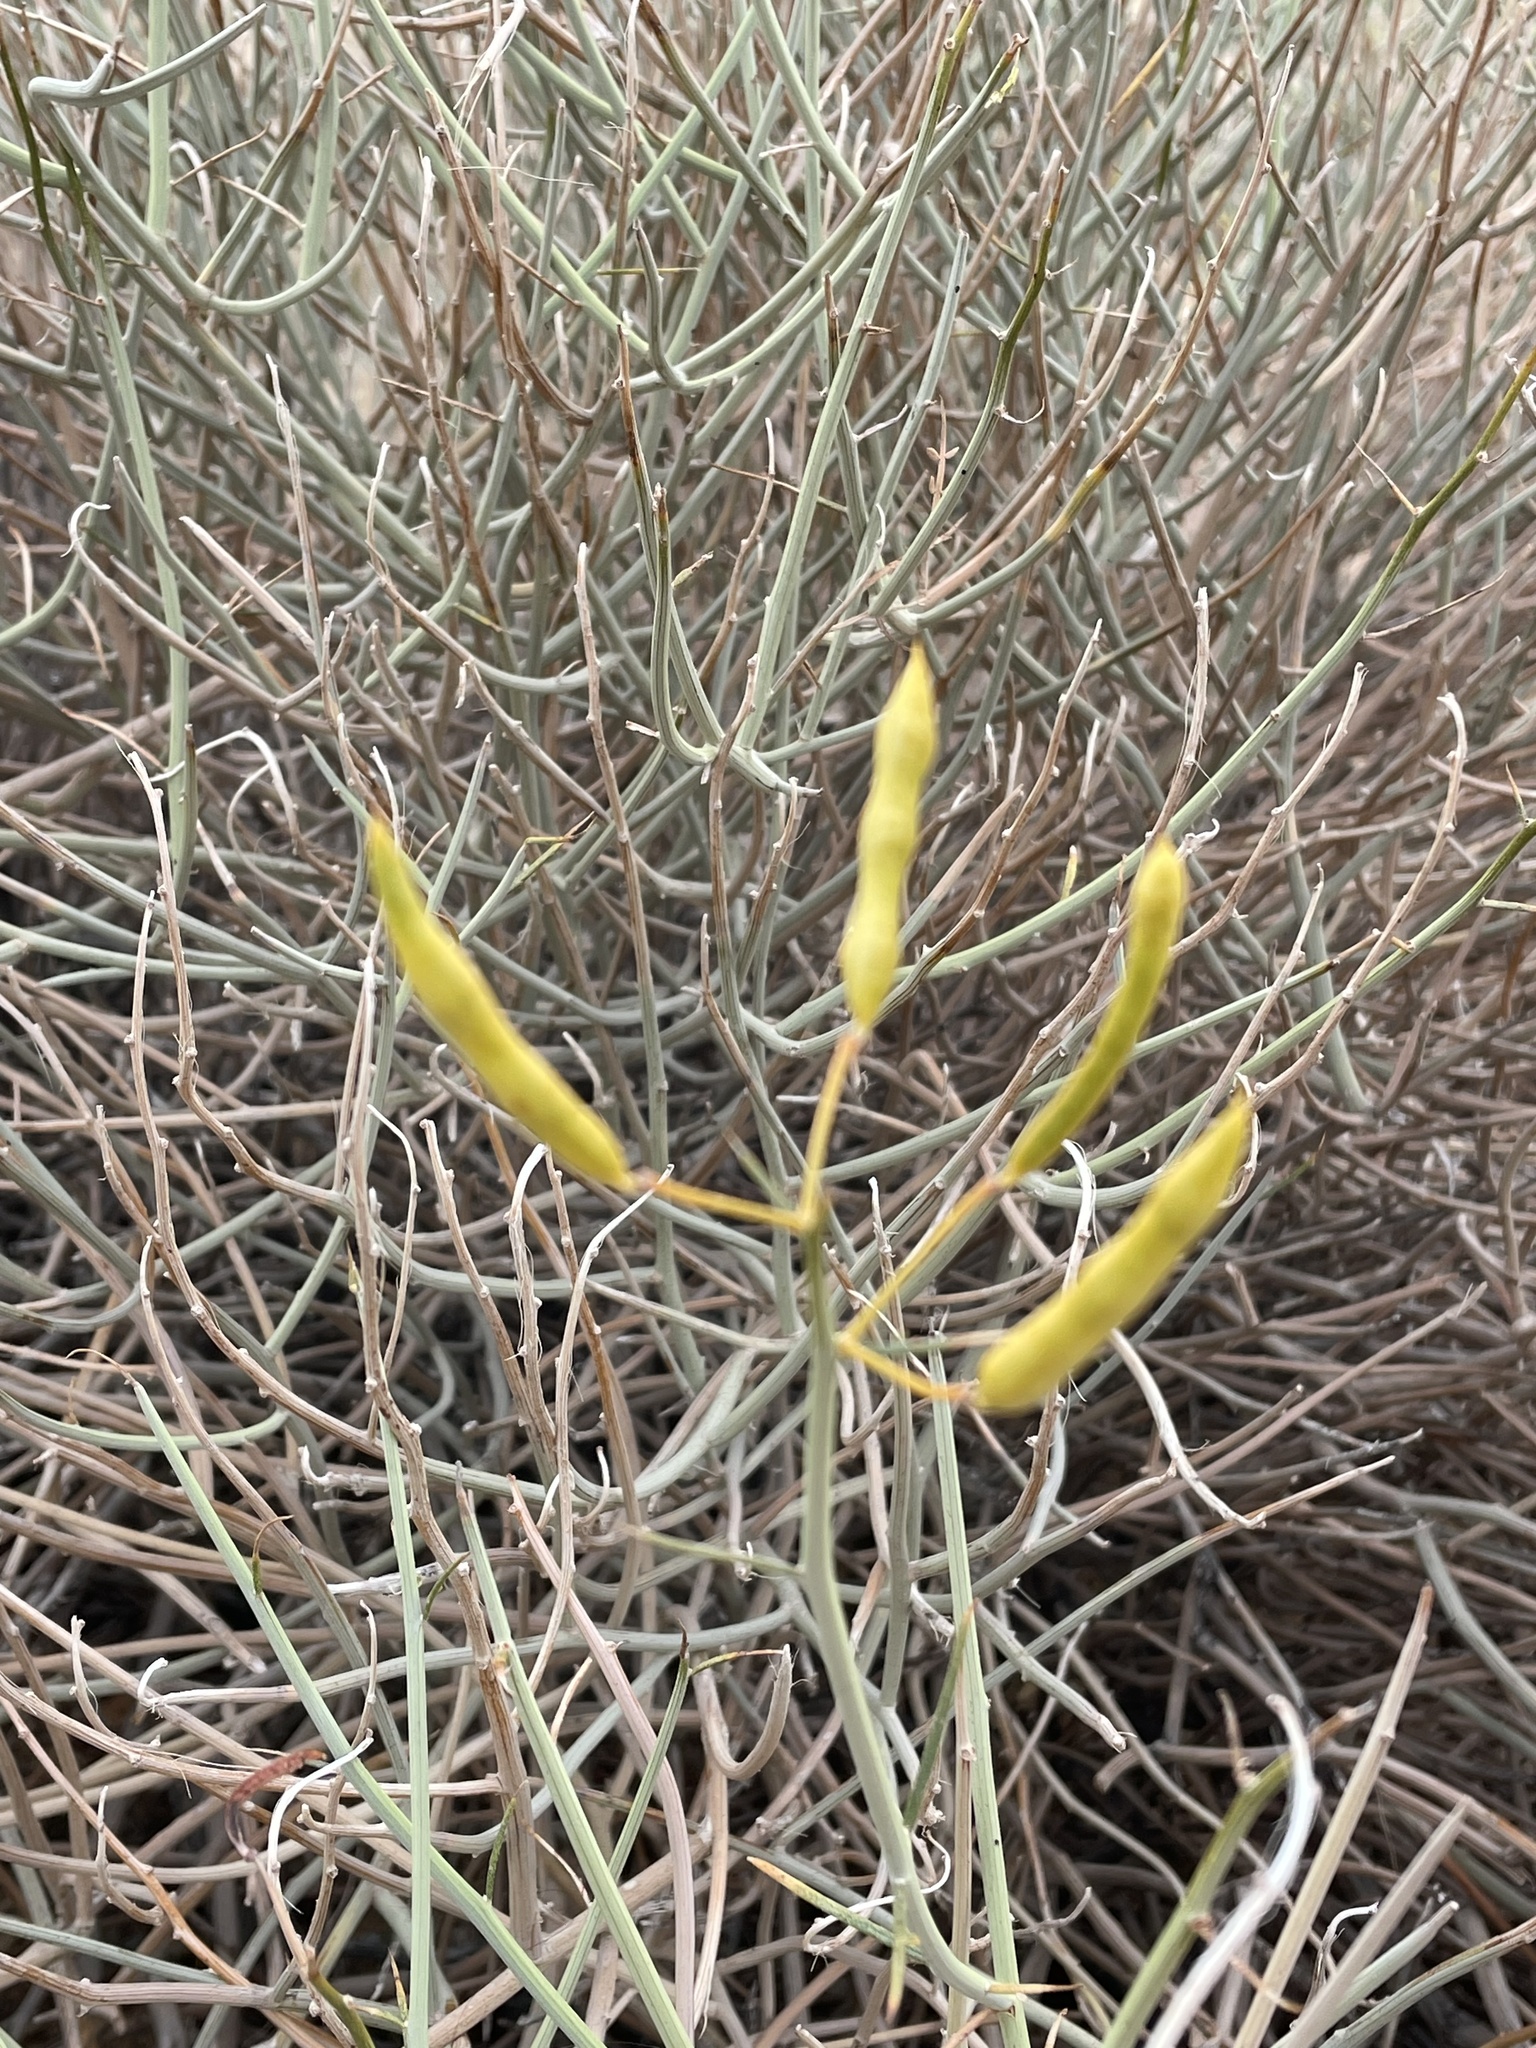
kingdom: Plantae
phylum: Tracheophyta
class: Magnoliopsida
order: Fabales
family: Fabaceae
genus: Senna
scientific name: Senna armata
